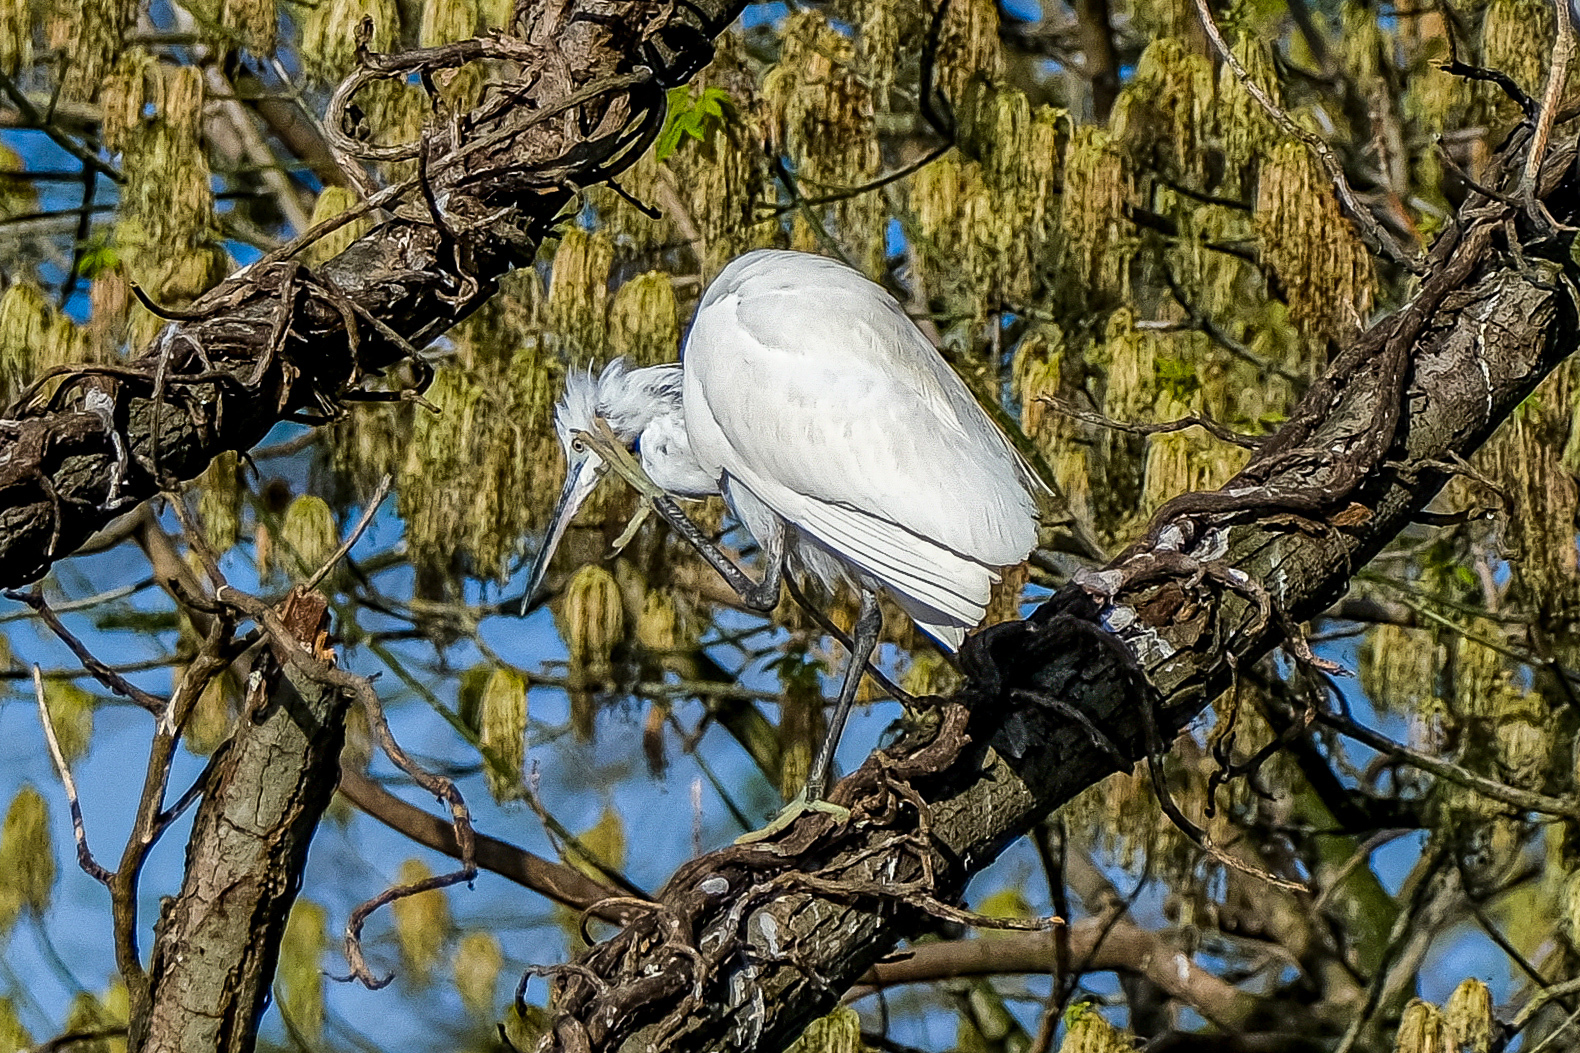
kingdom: Animalia
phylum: Chordata
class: Aves
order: Pelecaniformes
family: Ardeidae
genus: Egretta
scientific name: Egretta garzetta
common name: Little egret
